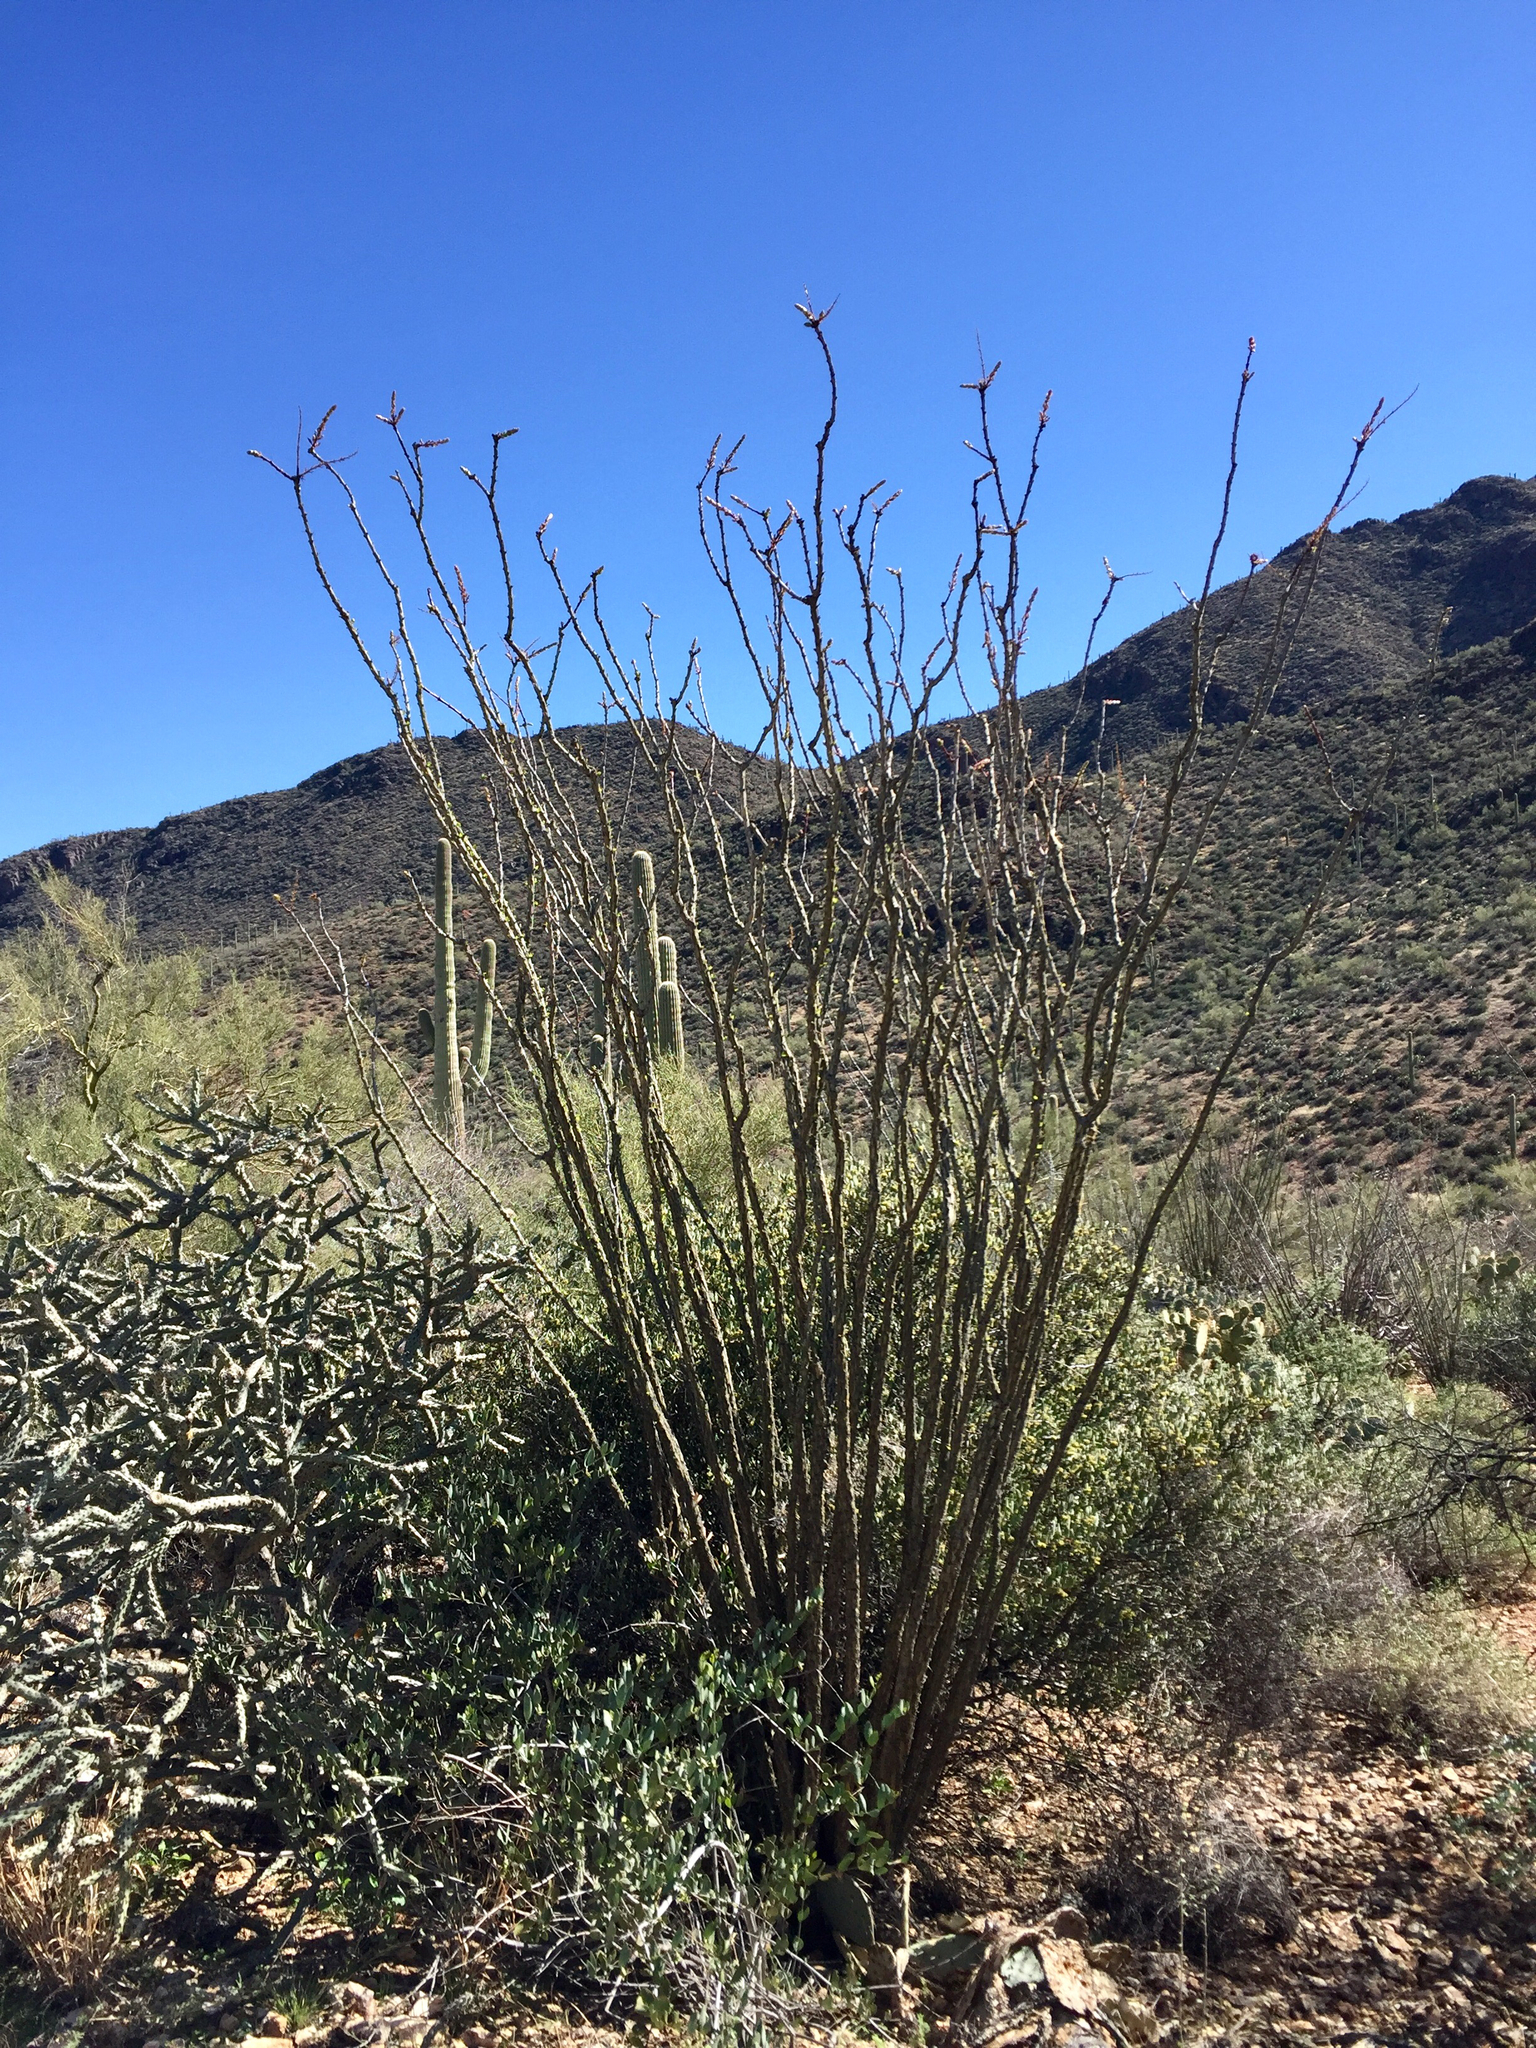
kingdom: Plantae
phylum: Tracheophyta
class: Magnoliopsida
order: Ericales
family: Fouquieriaceae
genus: Fouquieria
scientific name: Fouquieria splendens
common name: Vine-cactus
